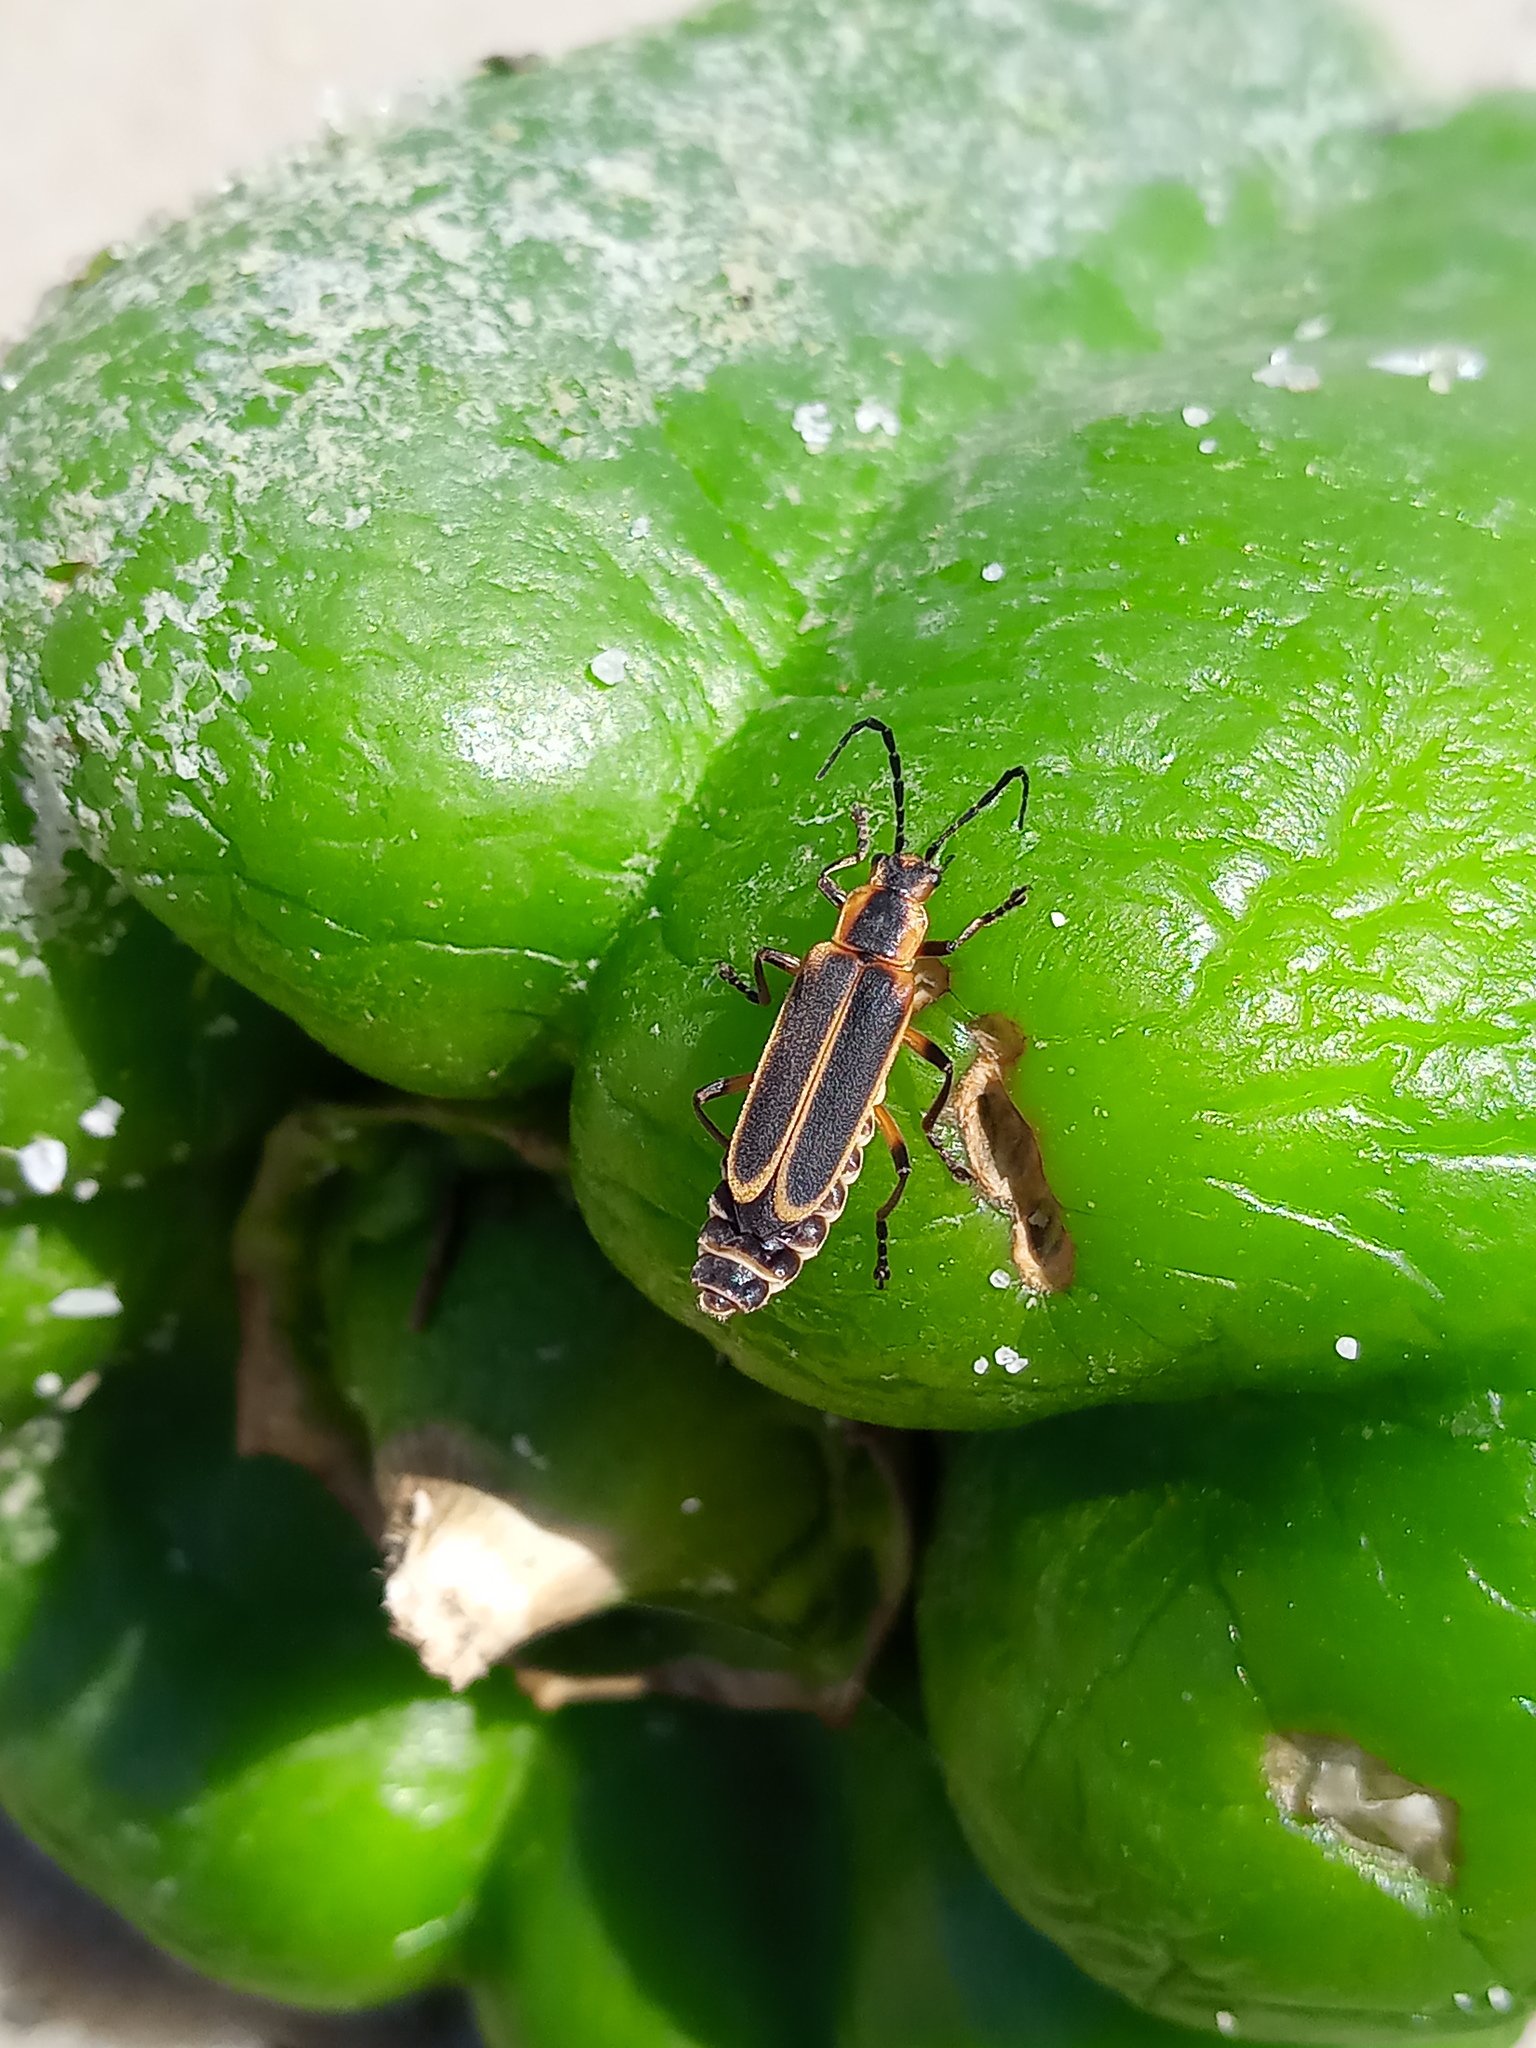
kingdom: Animalia
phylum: Arthropoda
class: Insecta
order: Coleoptera
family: Cantharidae
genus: Chauliognathus
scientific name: Chauliognathus marginatus
